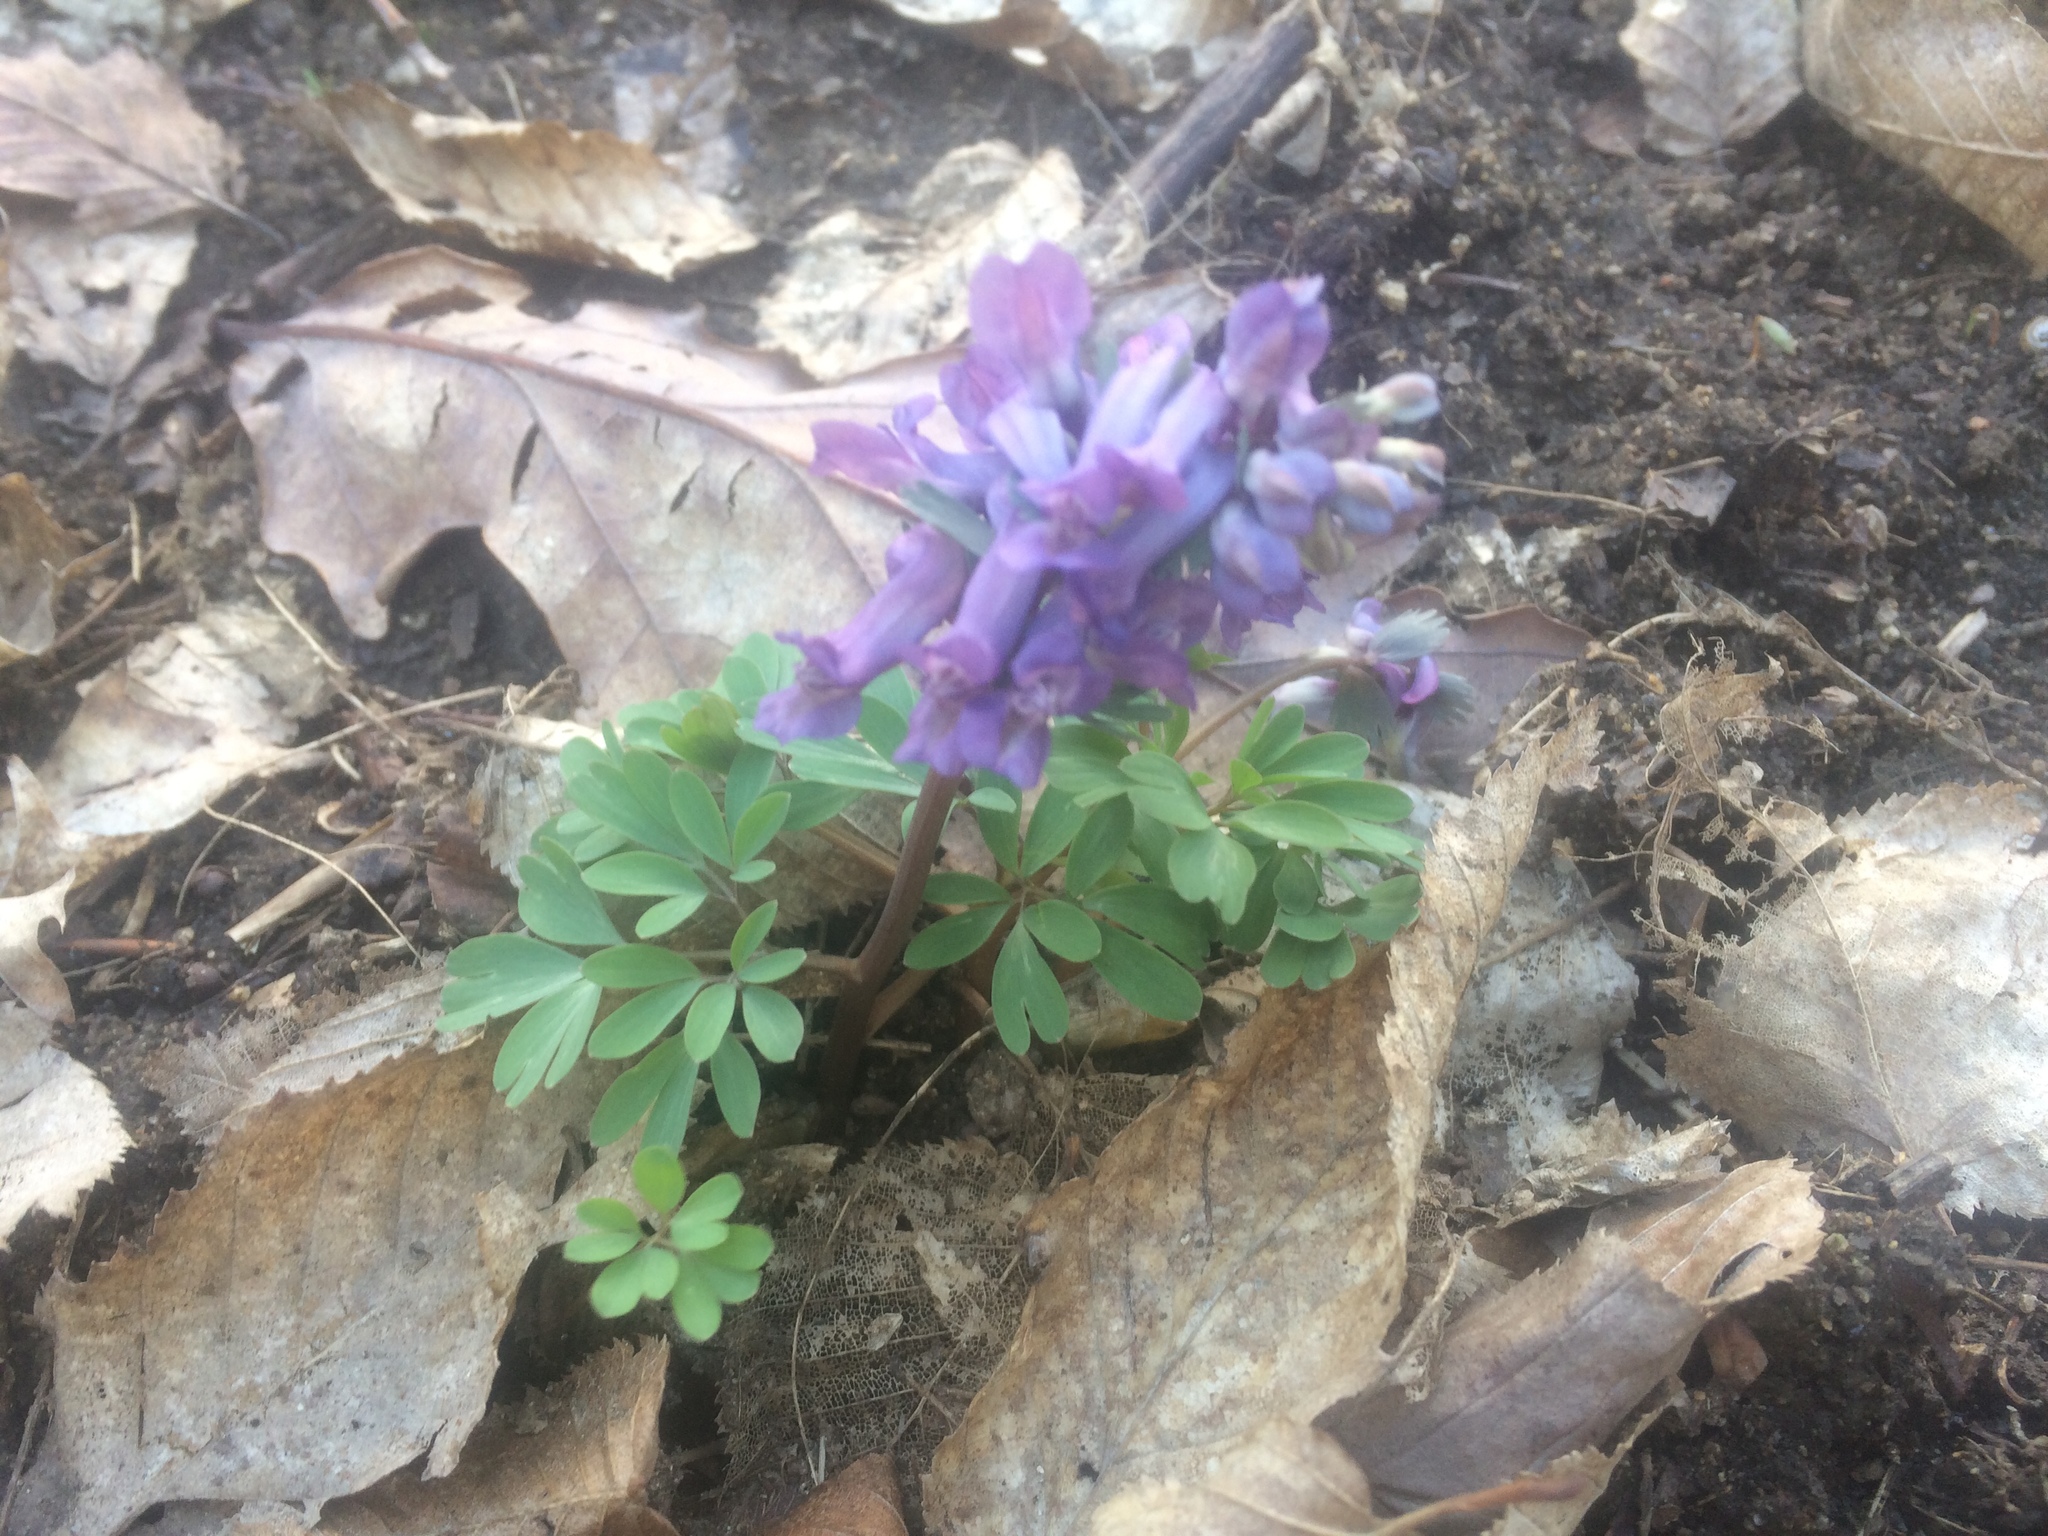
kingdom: Plantae
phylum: Tracheophyta
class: Magnoliopsida
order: Ranunculales
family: Papaveraceae
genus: Corydalis
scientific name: Corydalis solida
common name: Bird-in-a-bush
